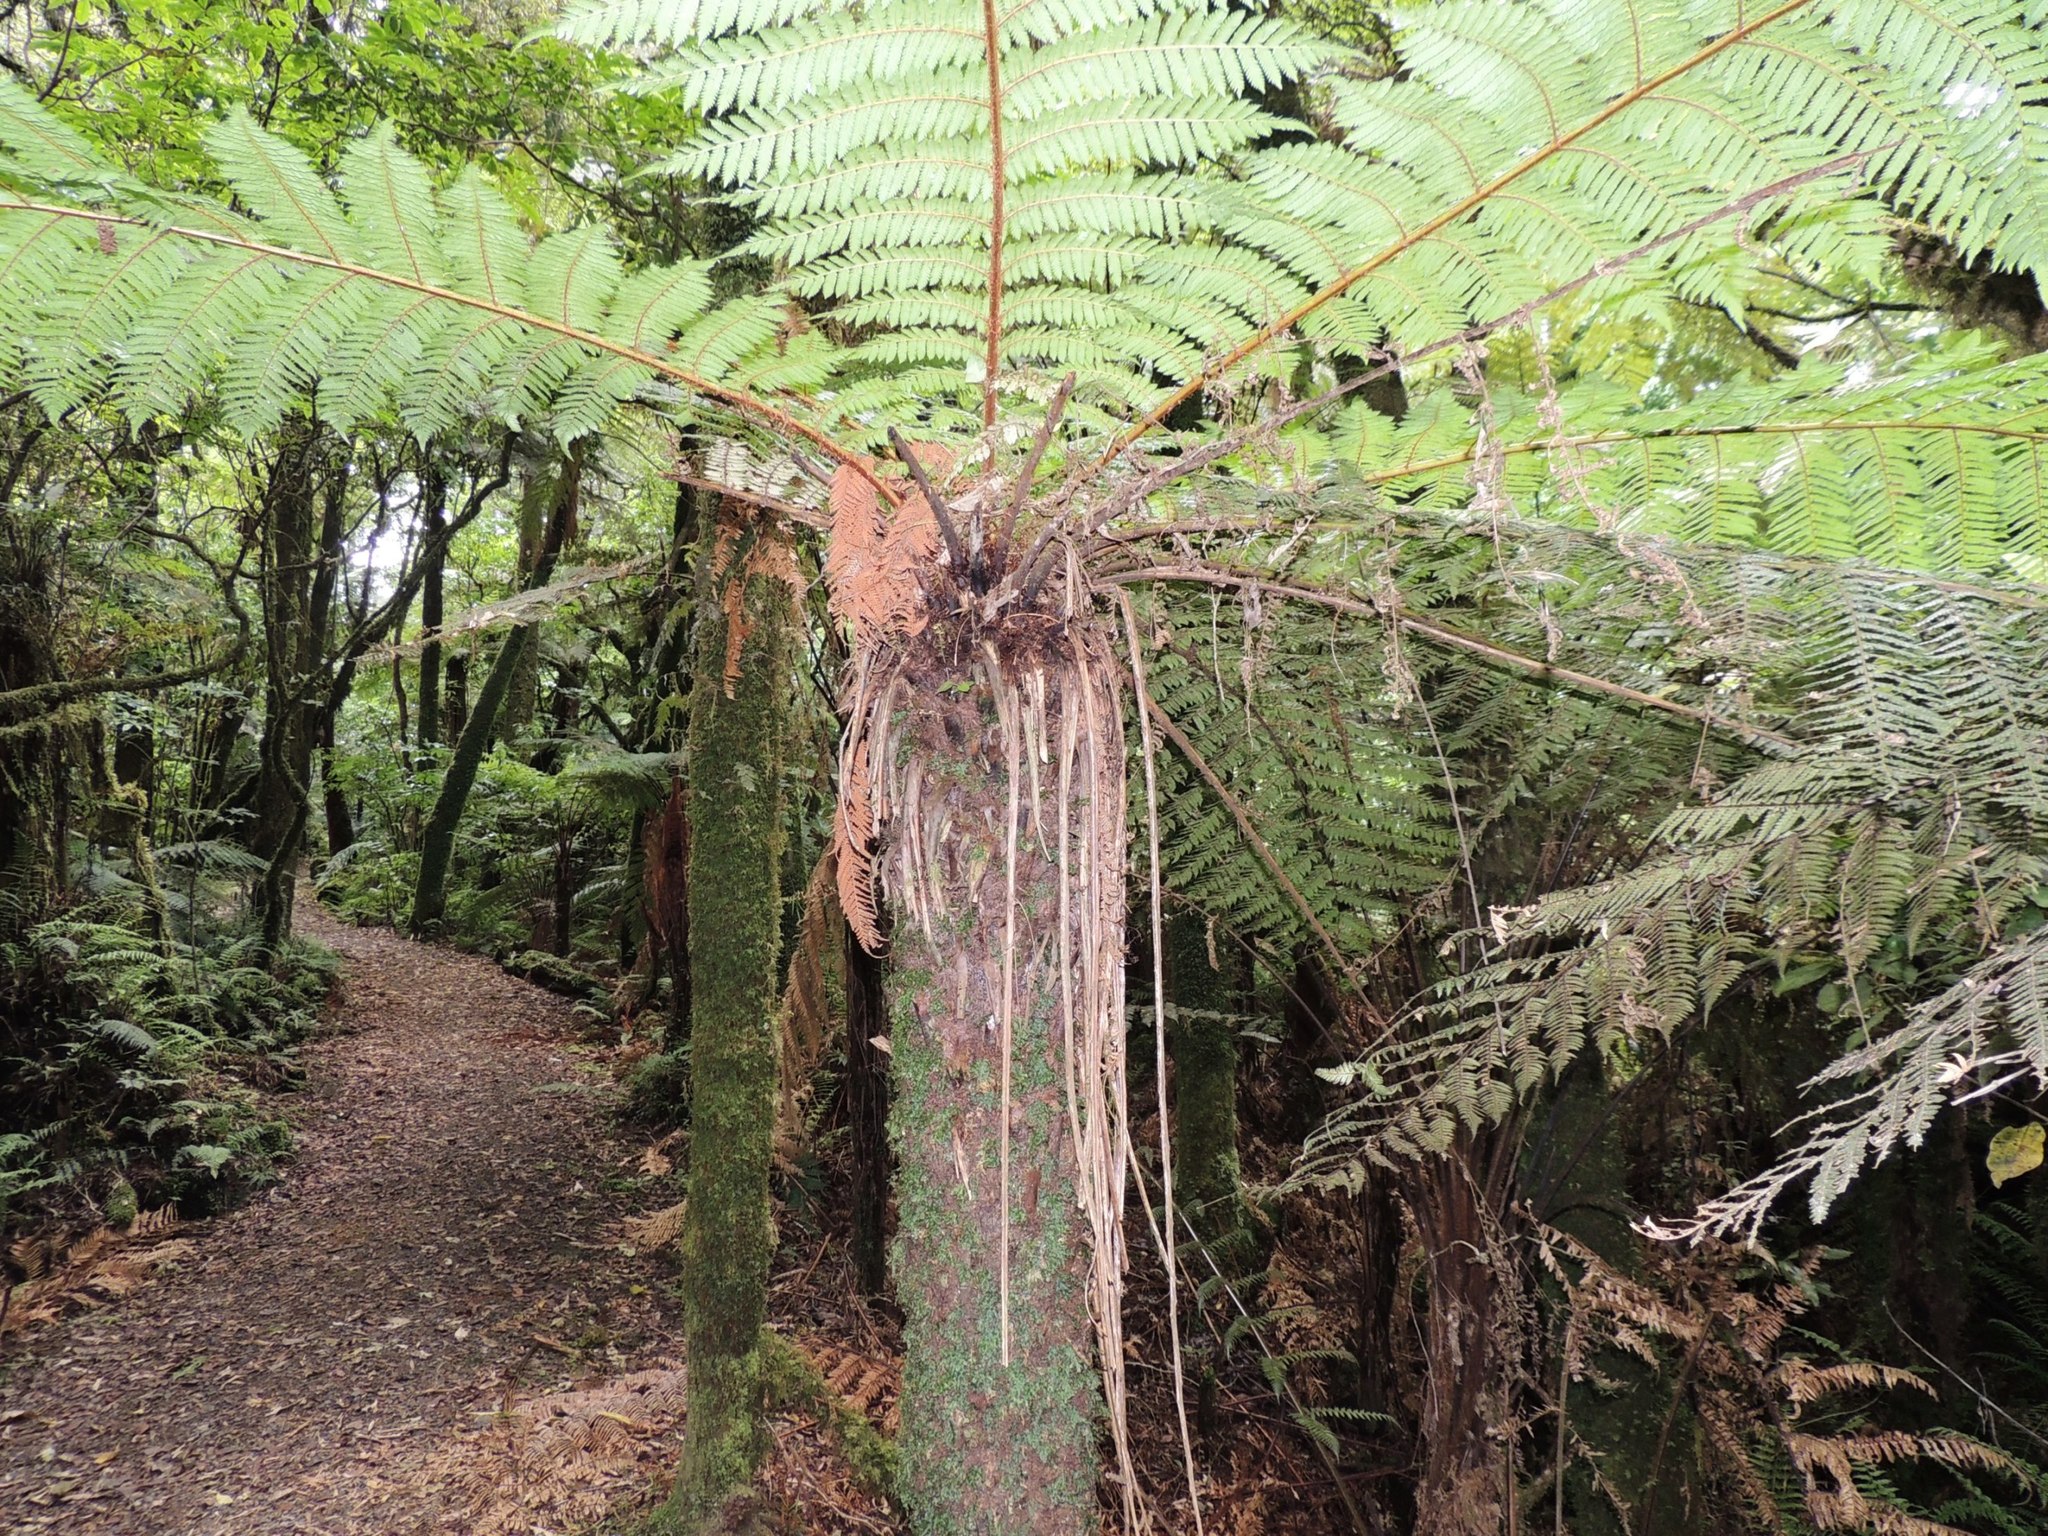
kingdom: Plantae
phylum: Tracheophyta
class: Polypodiopsida
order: Cyatheales
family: Dicksoniaceae
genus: Dicksonia
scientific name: Dicksonia fibrosa
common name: Golden tree fern
